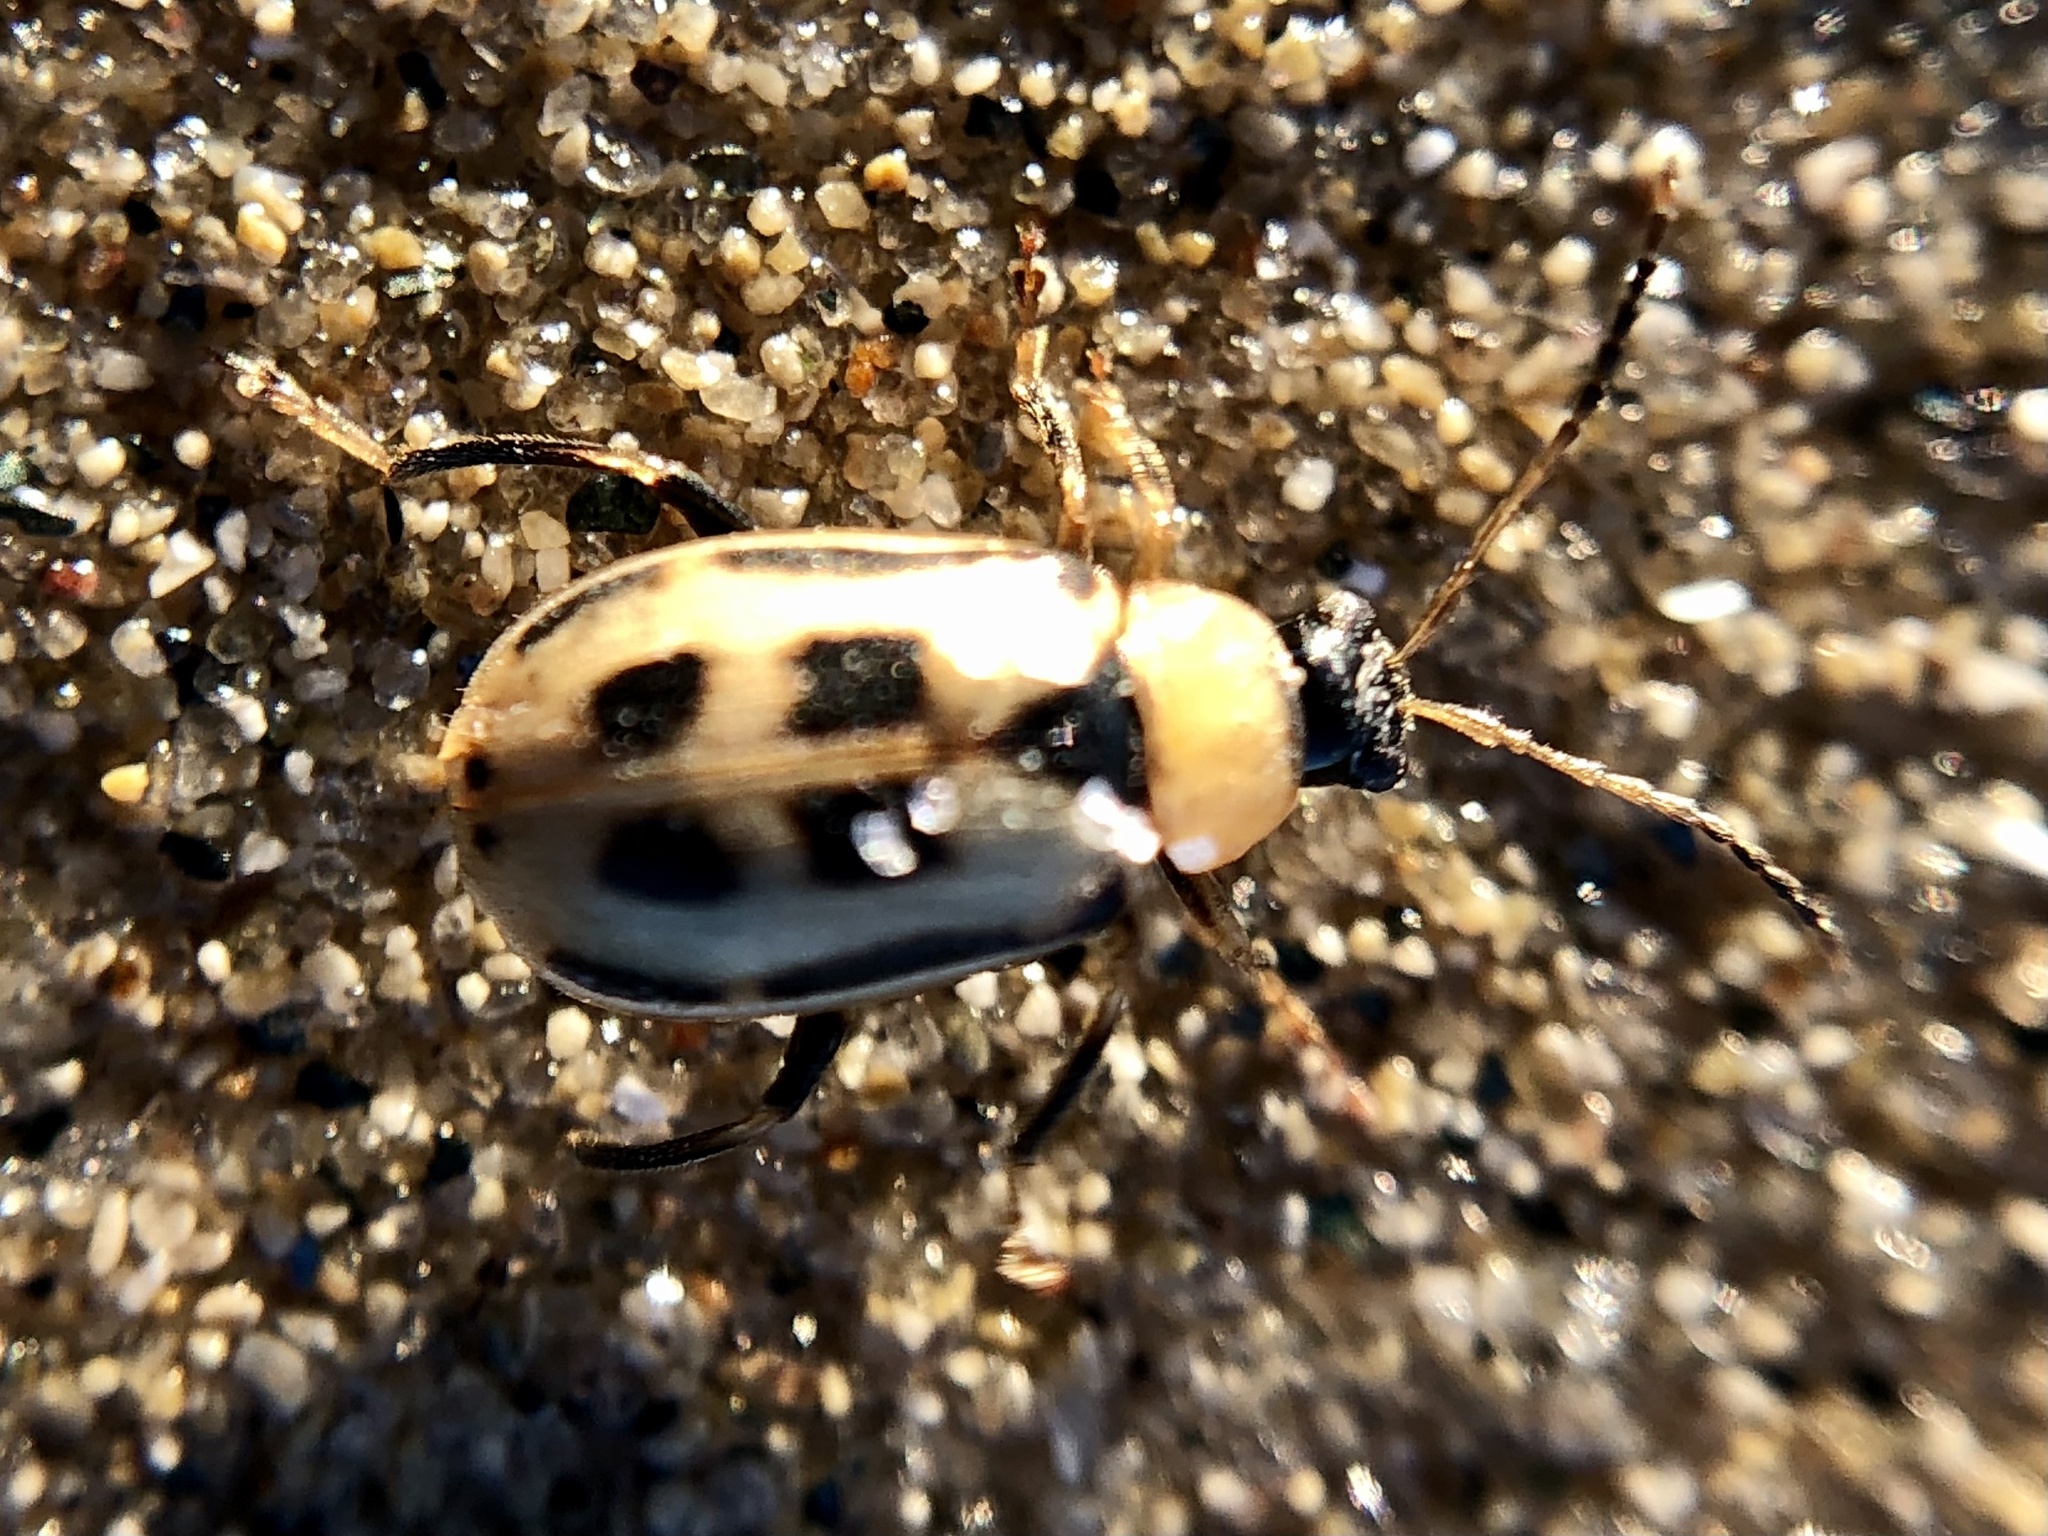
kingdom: Animalia
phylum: Arthropoda
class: Insecta
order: Coleoptera
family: Chrysomelidae
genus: Cerotoma
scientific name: Cerotoma trifurcata
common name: Bean leaf beetle
